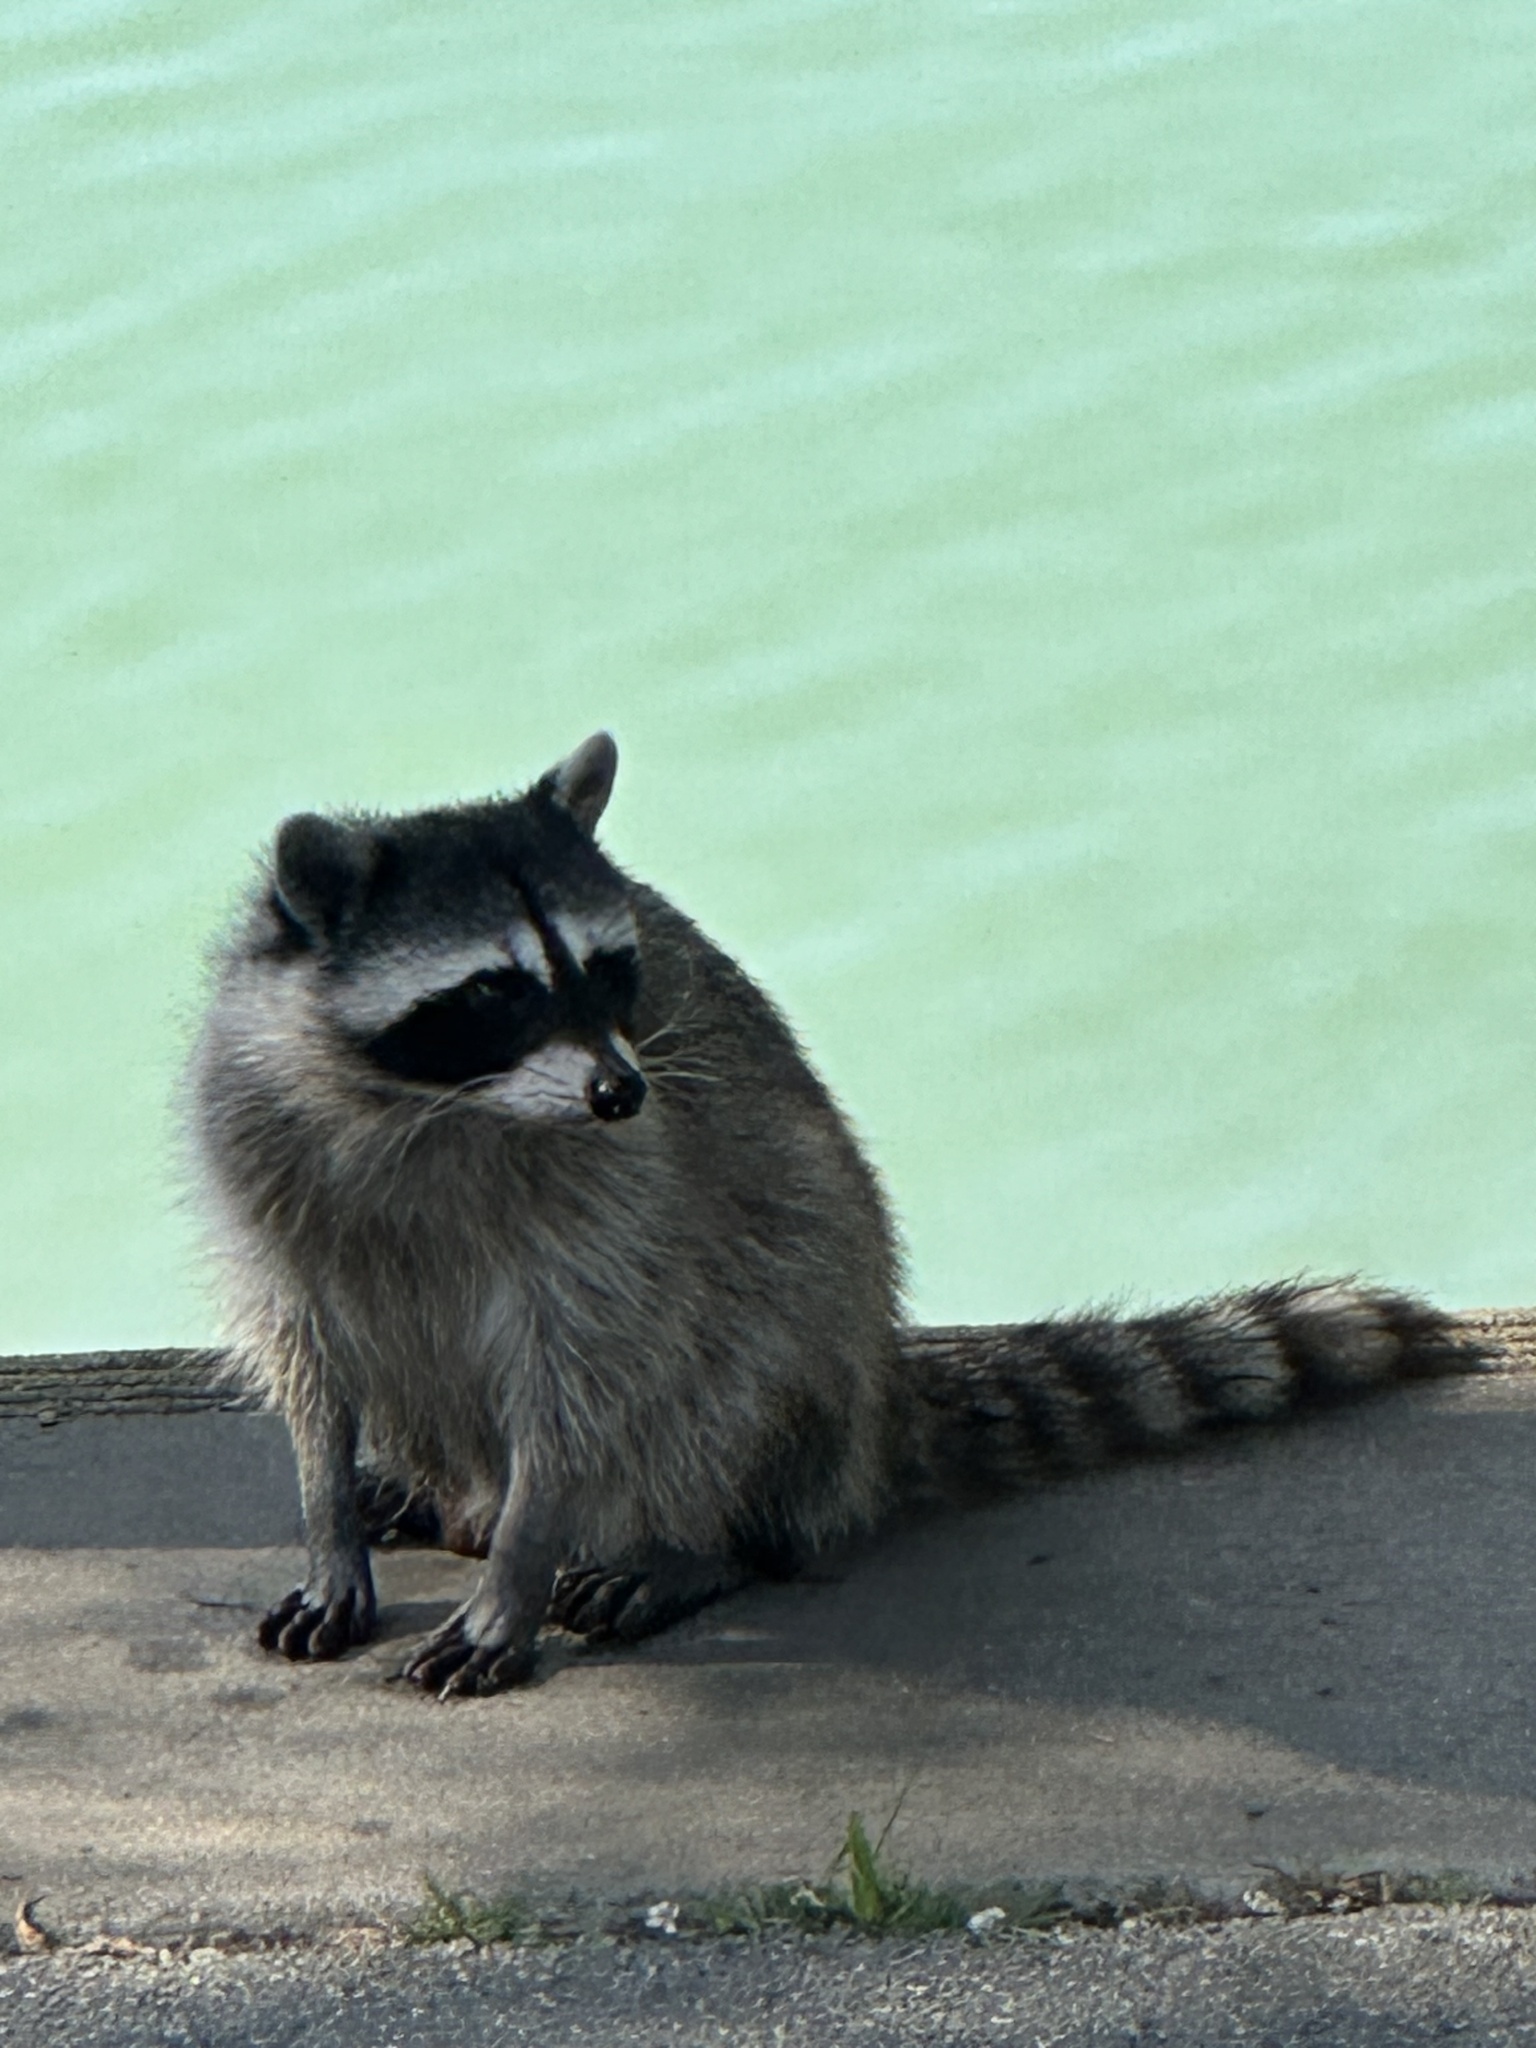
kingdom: Animalia
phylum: Chordata
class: Mammalia
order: Carnivora
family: Procyonidae
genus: Procyon
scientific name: Procyon lotor
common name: Raccoon
